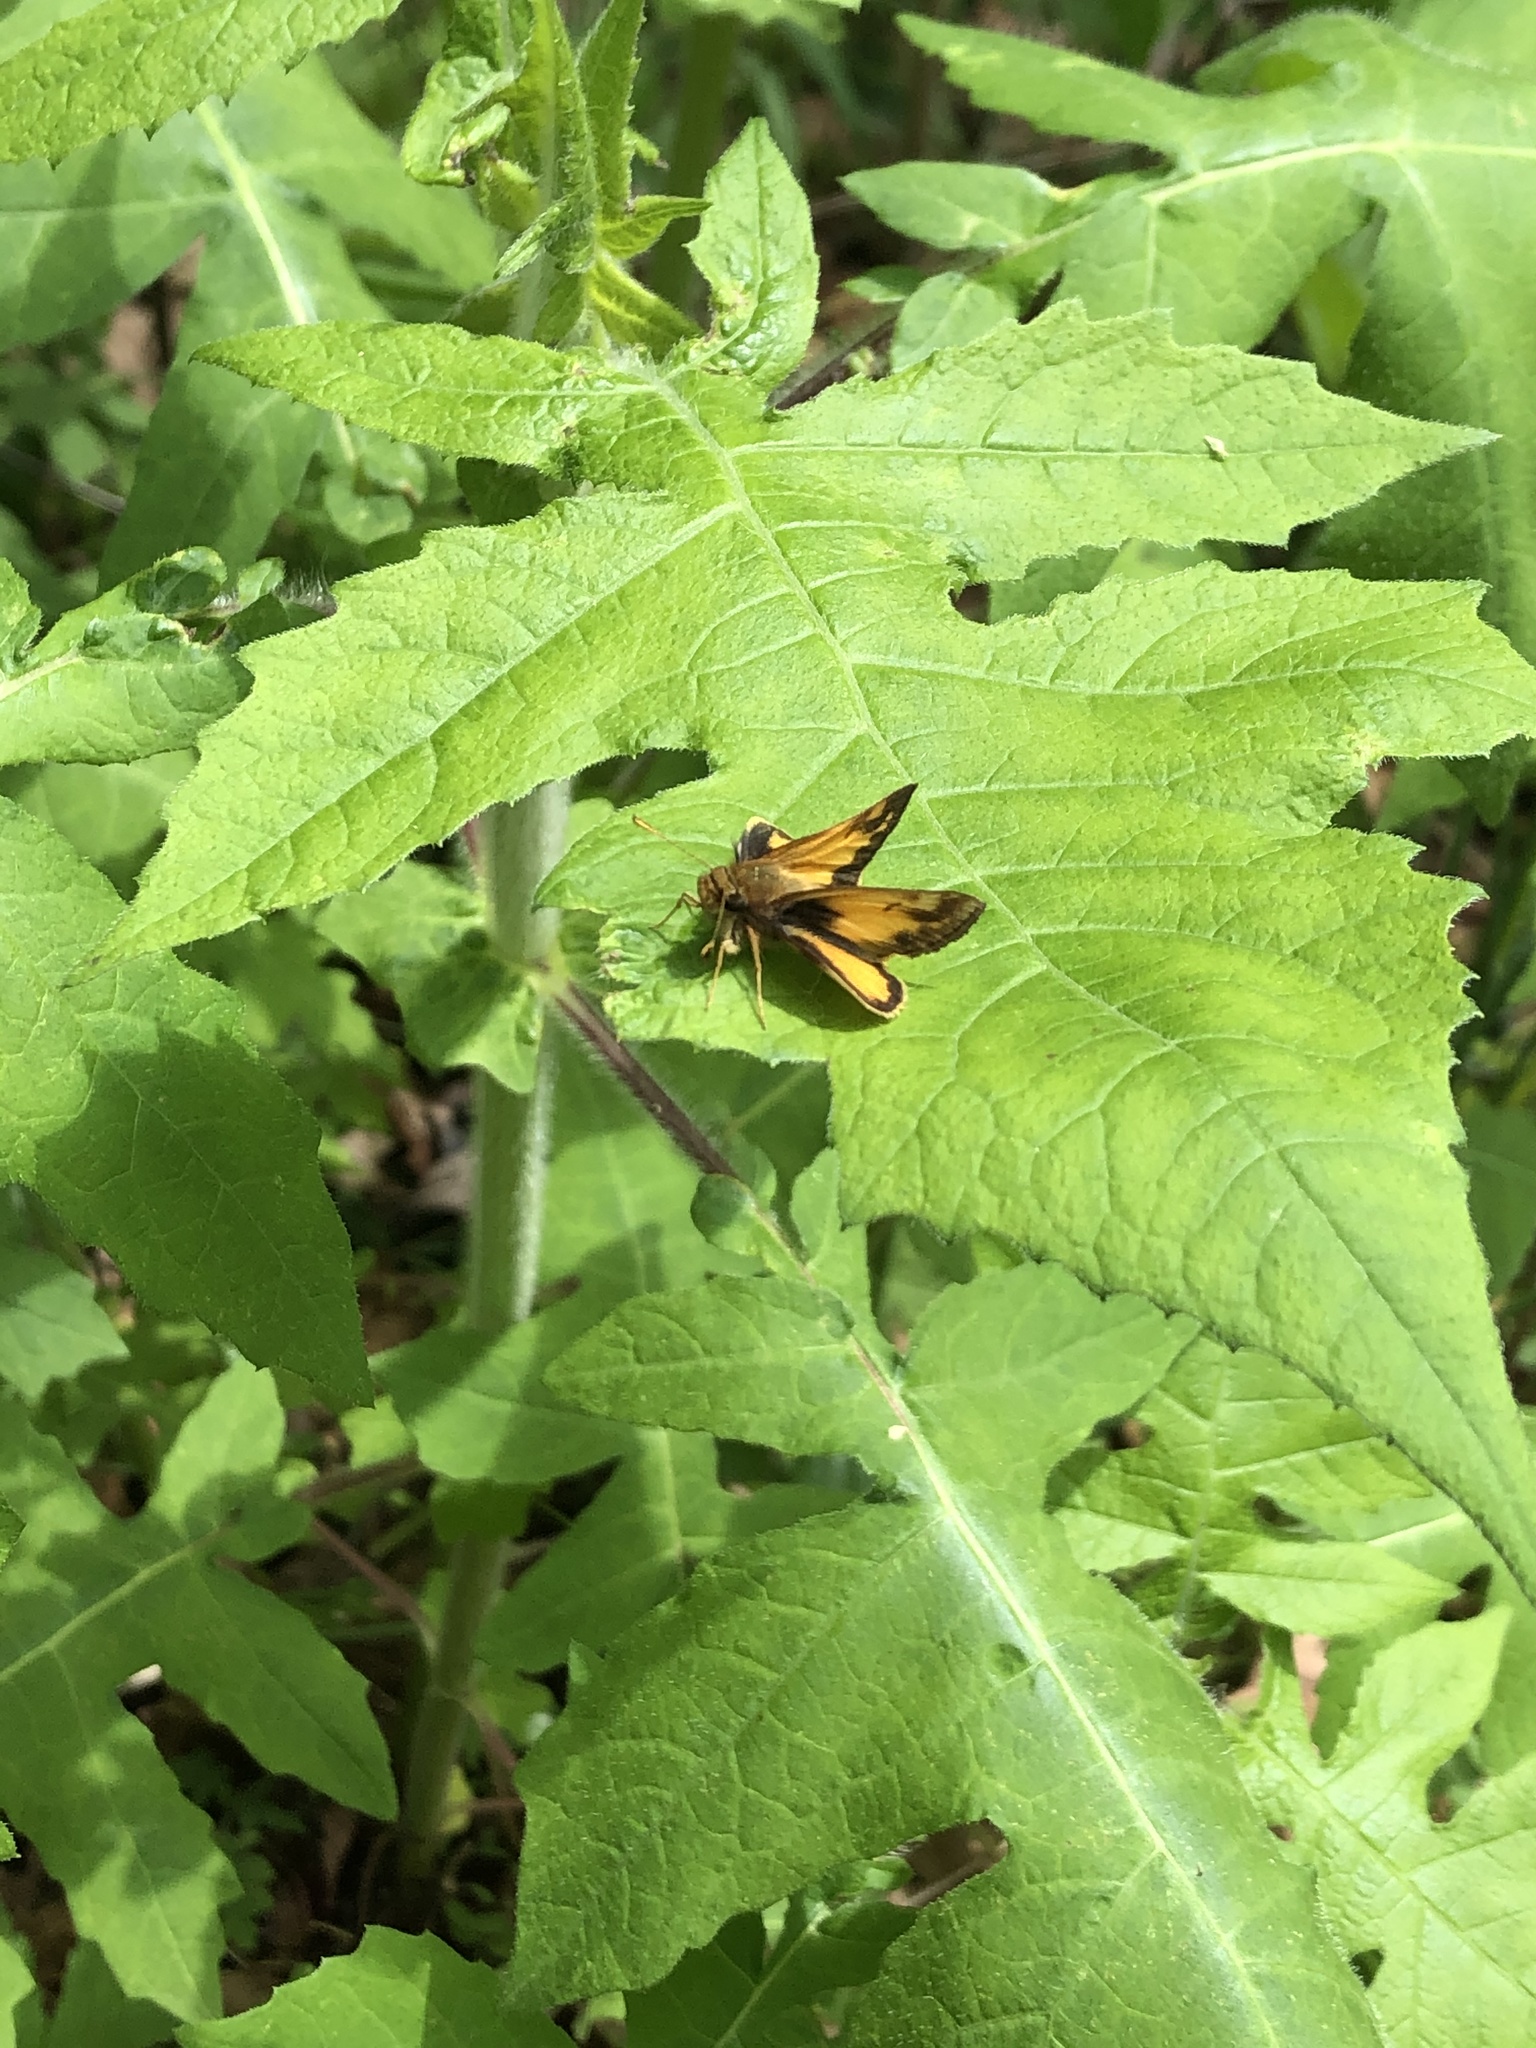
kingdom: Animalia
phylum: Arthropoda
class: Insecta
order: Lepidoptera
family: Hesperiidae
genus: Lon
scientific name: Lon zabulon
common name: Zabulon skipper
